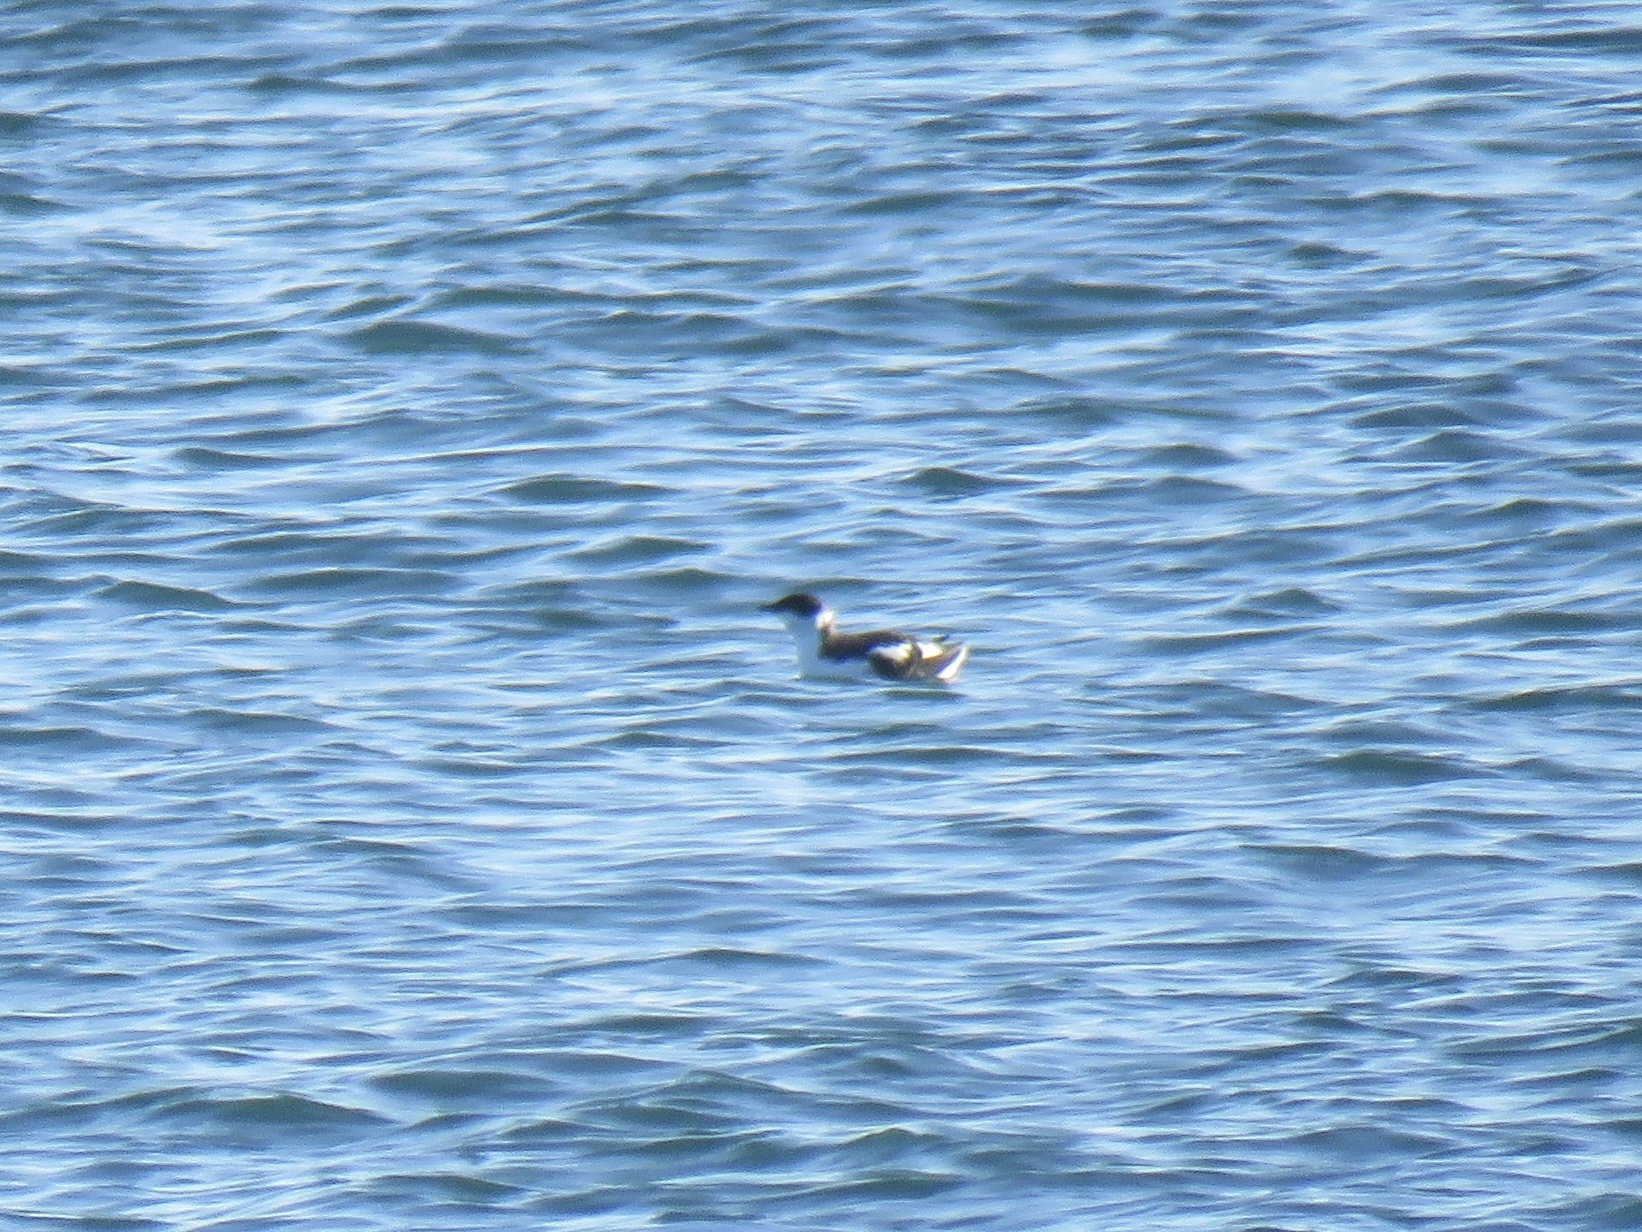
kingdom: Animalia
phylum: Chordata
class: Aves
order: Charadriiformes
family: Alcidae
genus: Brachyramphus
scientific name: Brachyramphus marmoratus
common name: Marbled murrelet
